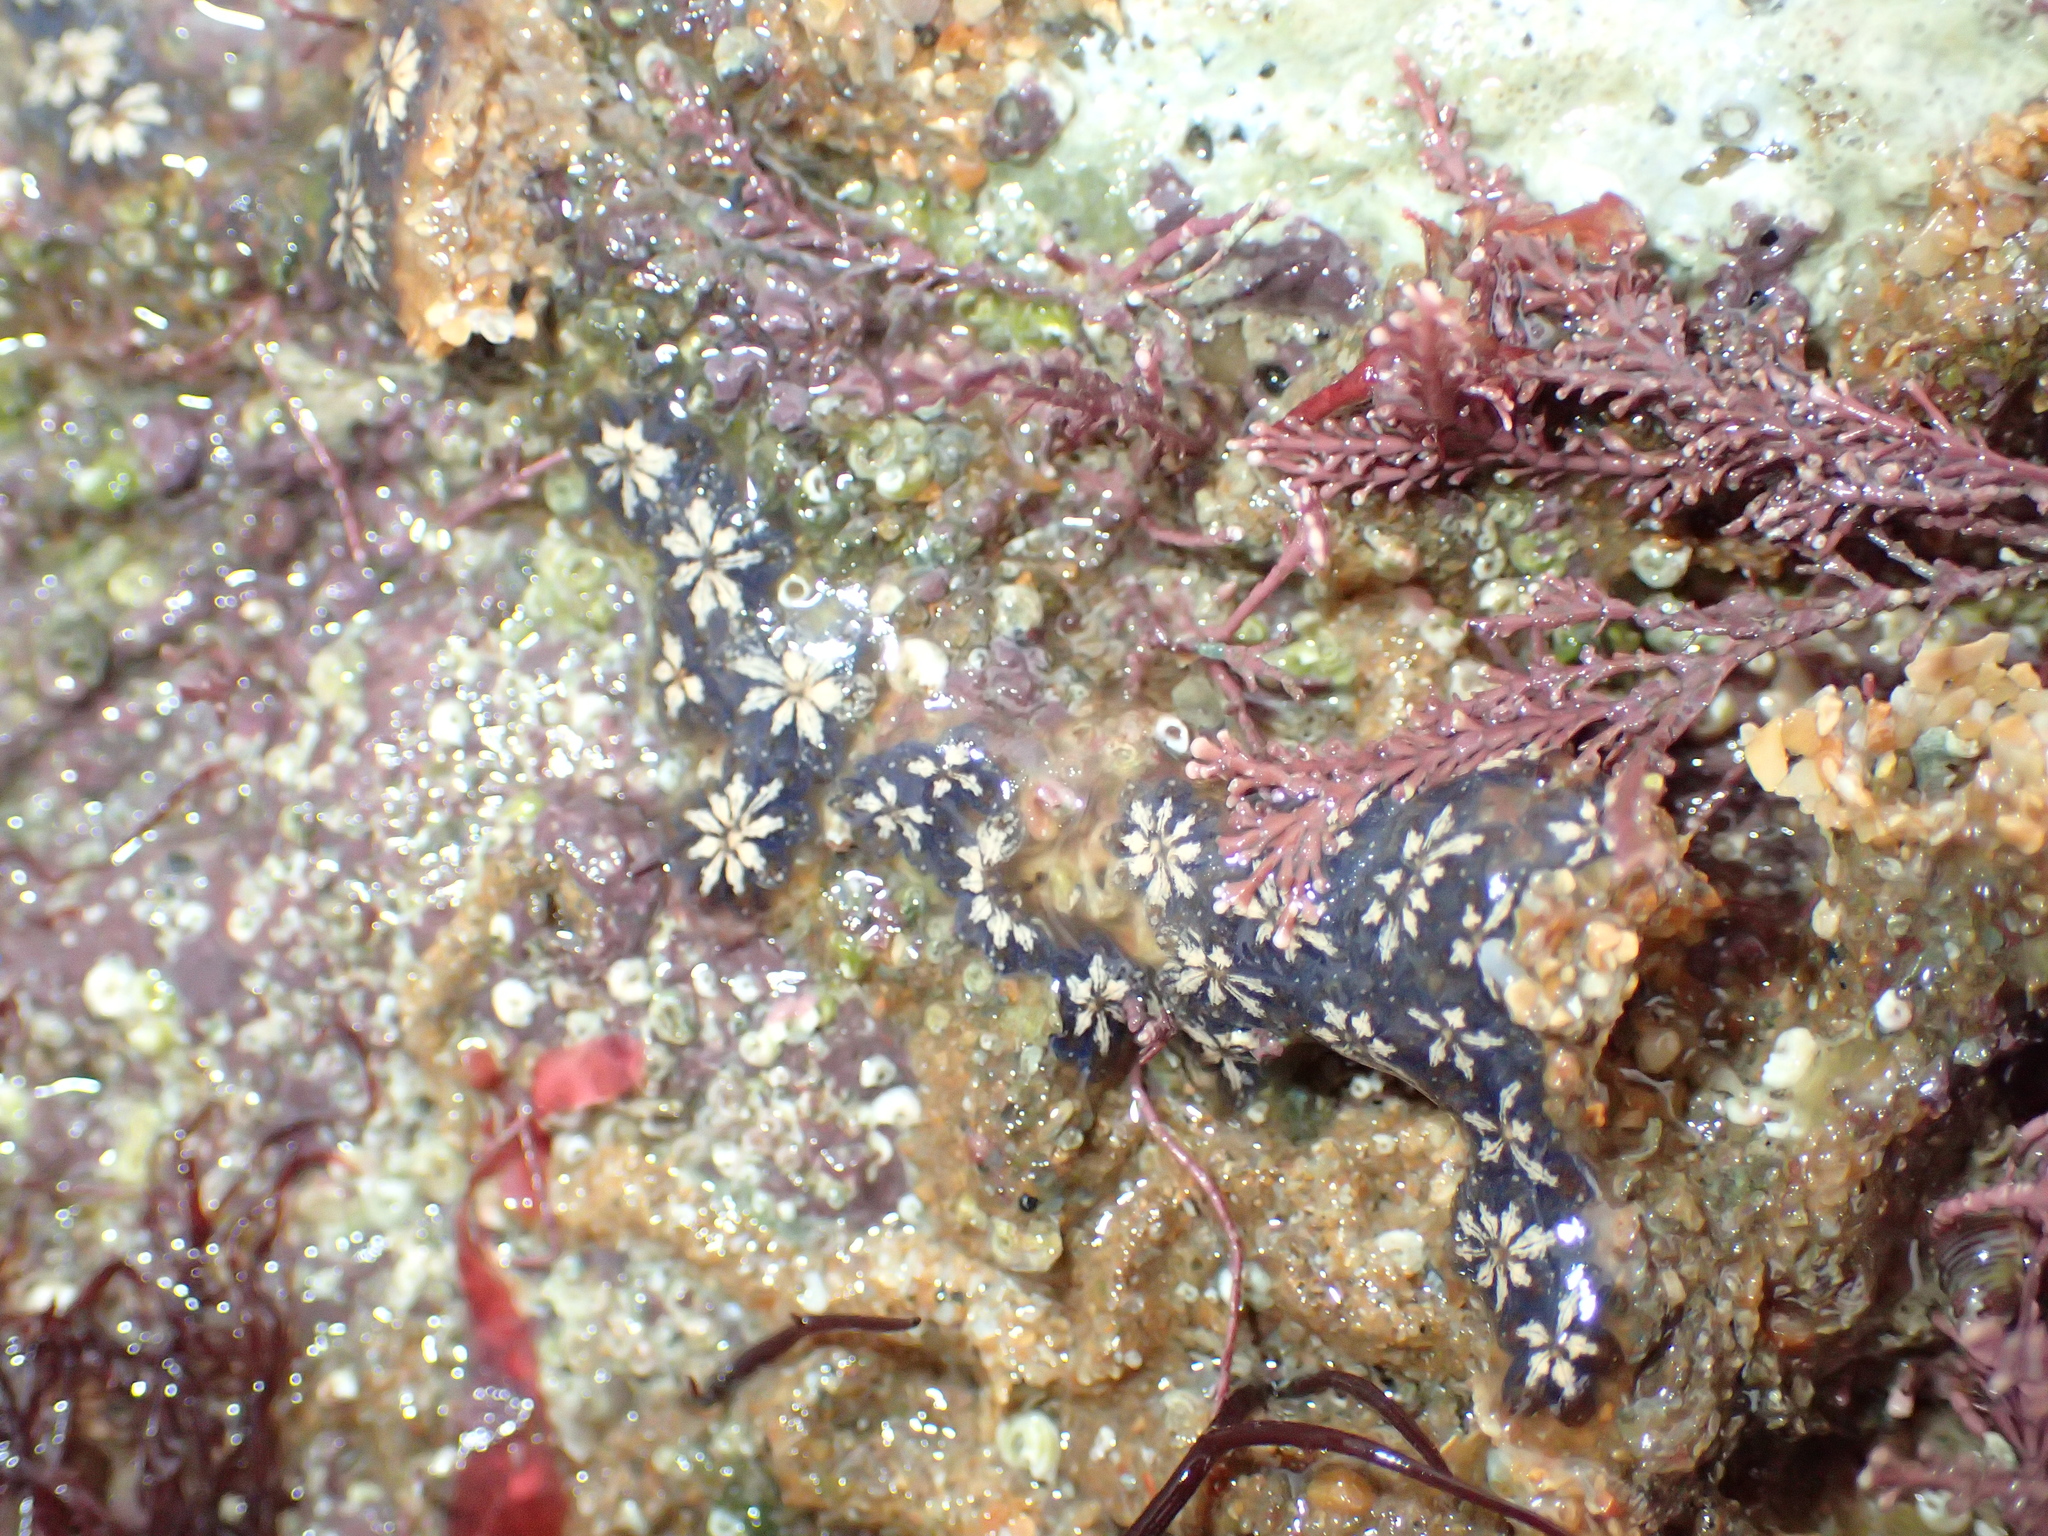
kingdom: Animalia
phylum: Chordata
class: Ascidiacea
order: Stolidobranchia
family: Styelidae
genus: Botryllus
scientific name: Botryllus schlosseri
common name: Golden star tunicate
